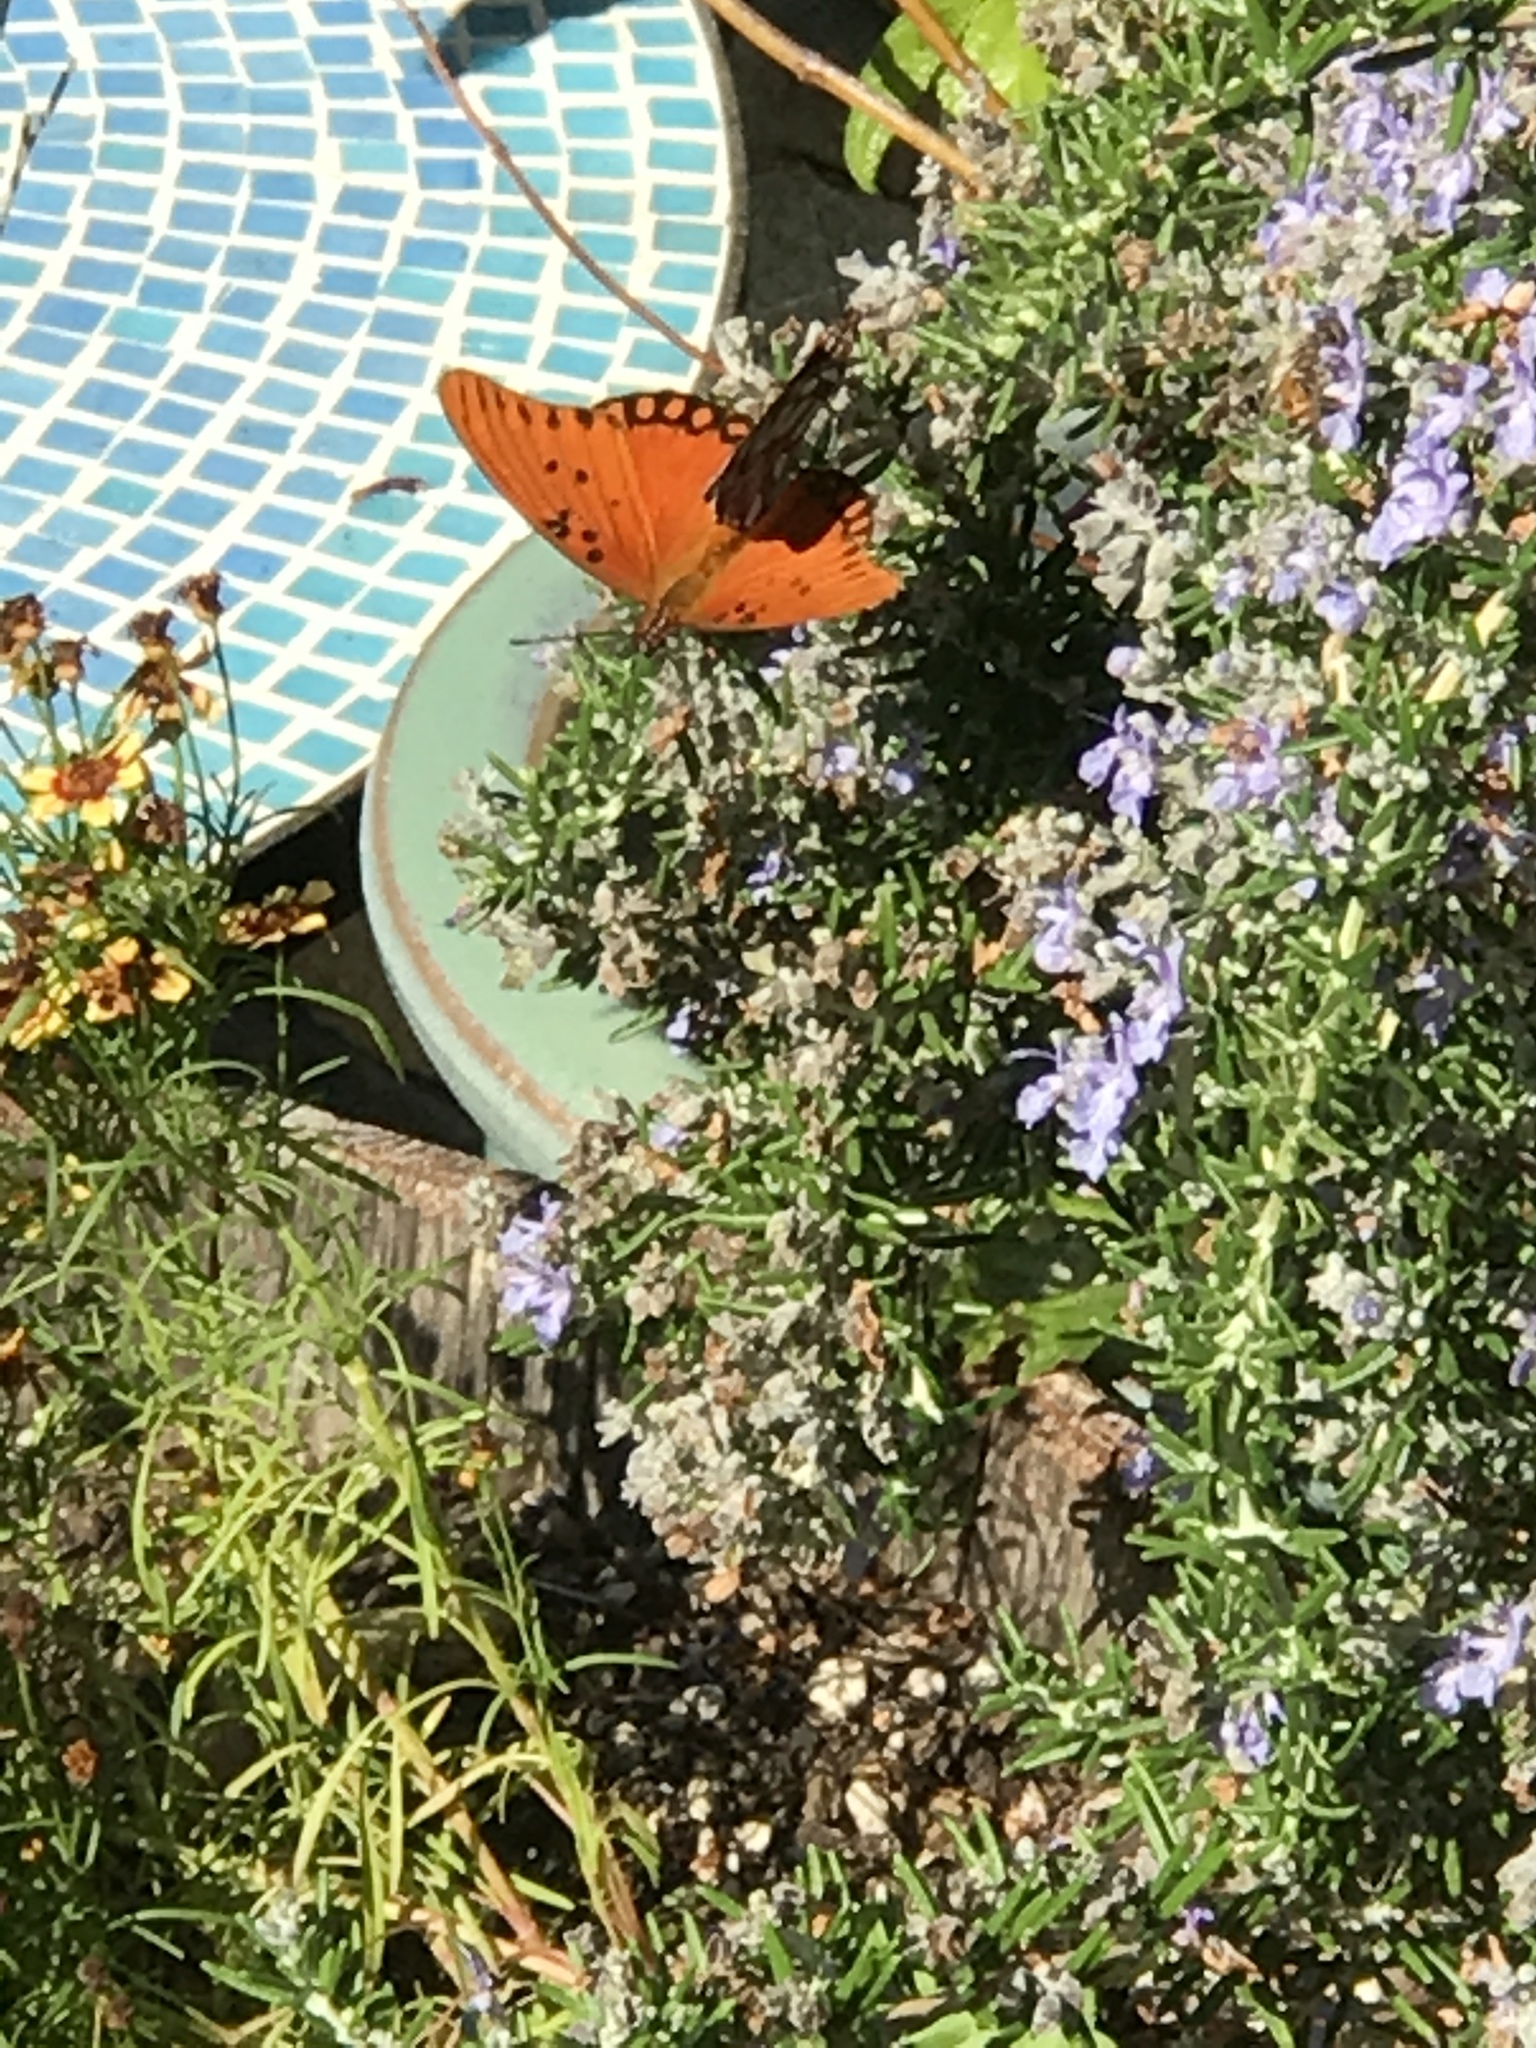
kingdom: Animalia
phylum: Arthropoda
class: Insecta
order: Lepidoptera
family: Nymphalidae
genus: Dione
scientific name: Dione vanillae
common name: Gulf fritillary
